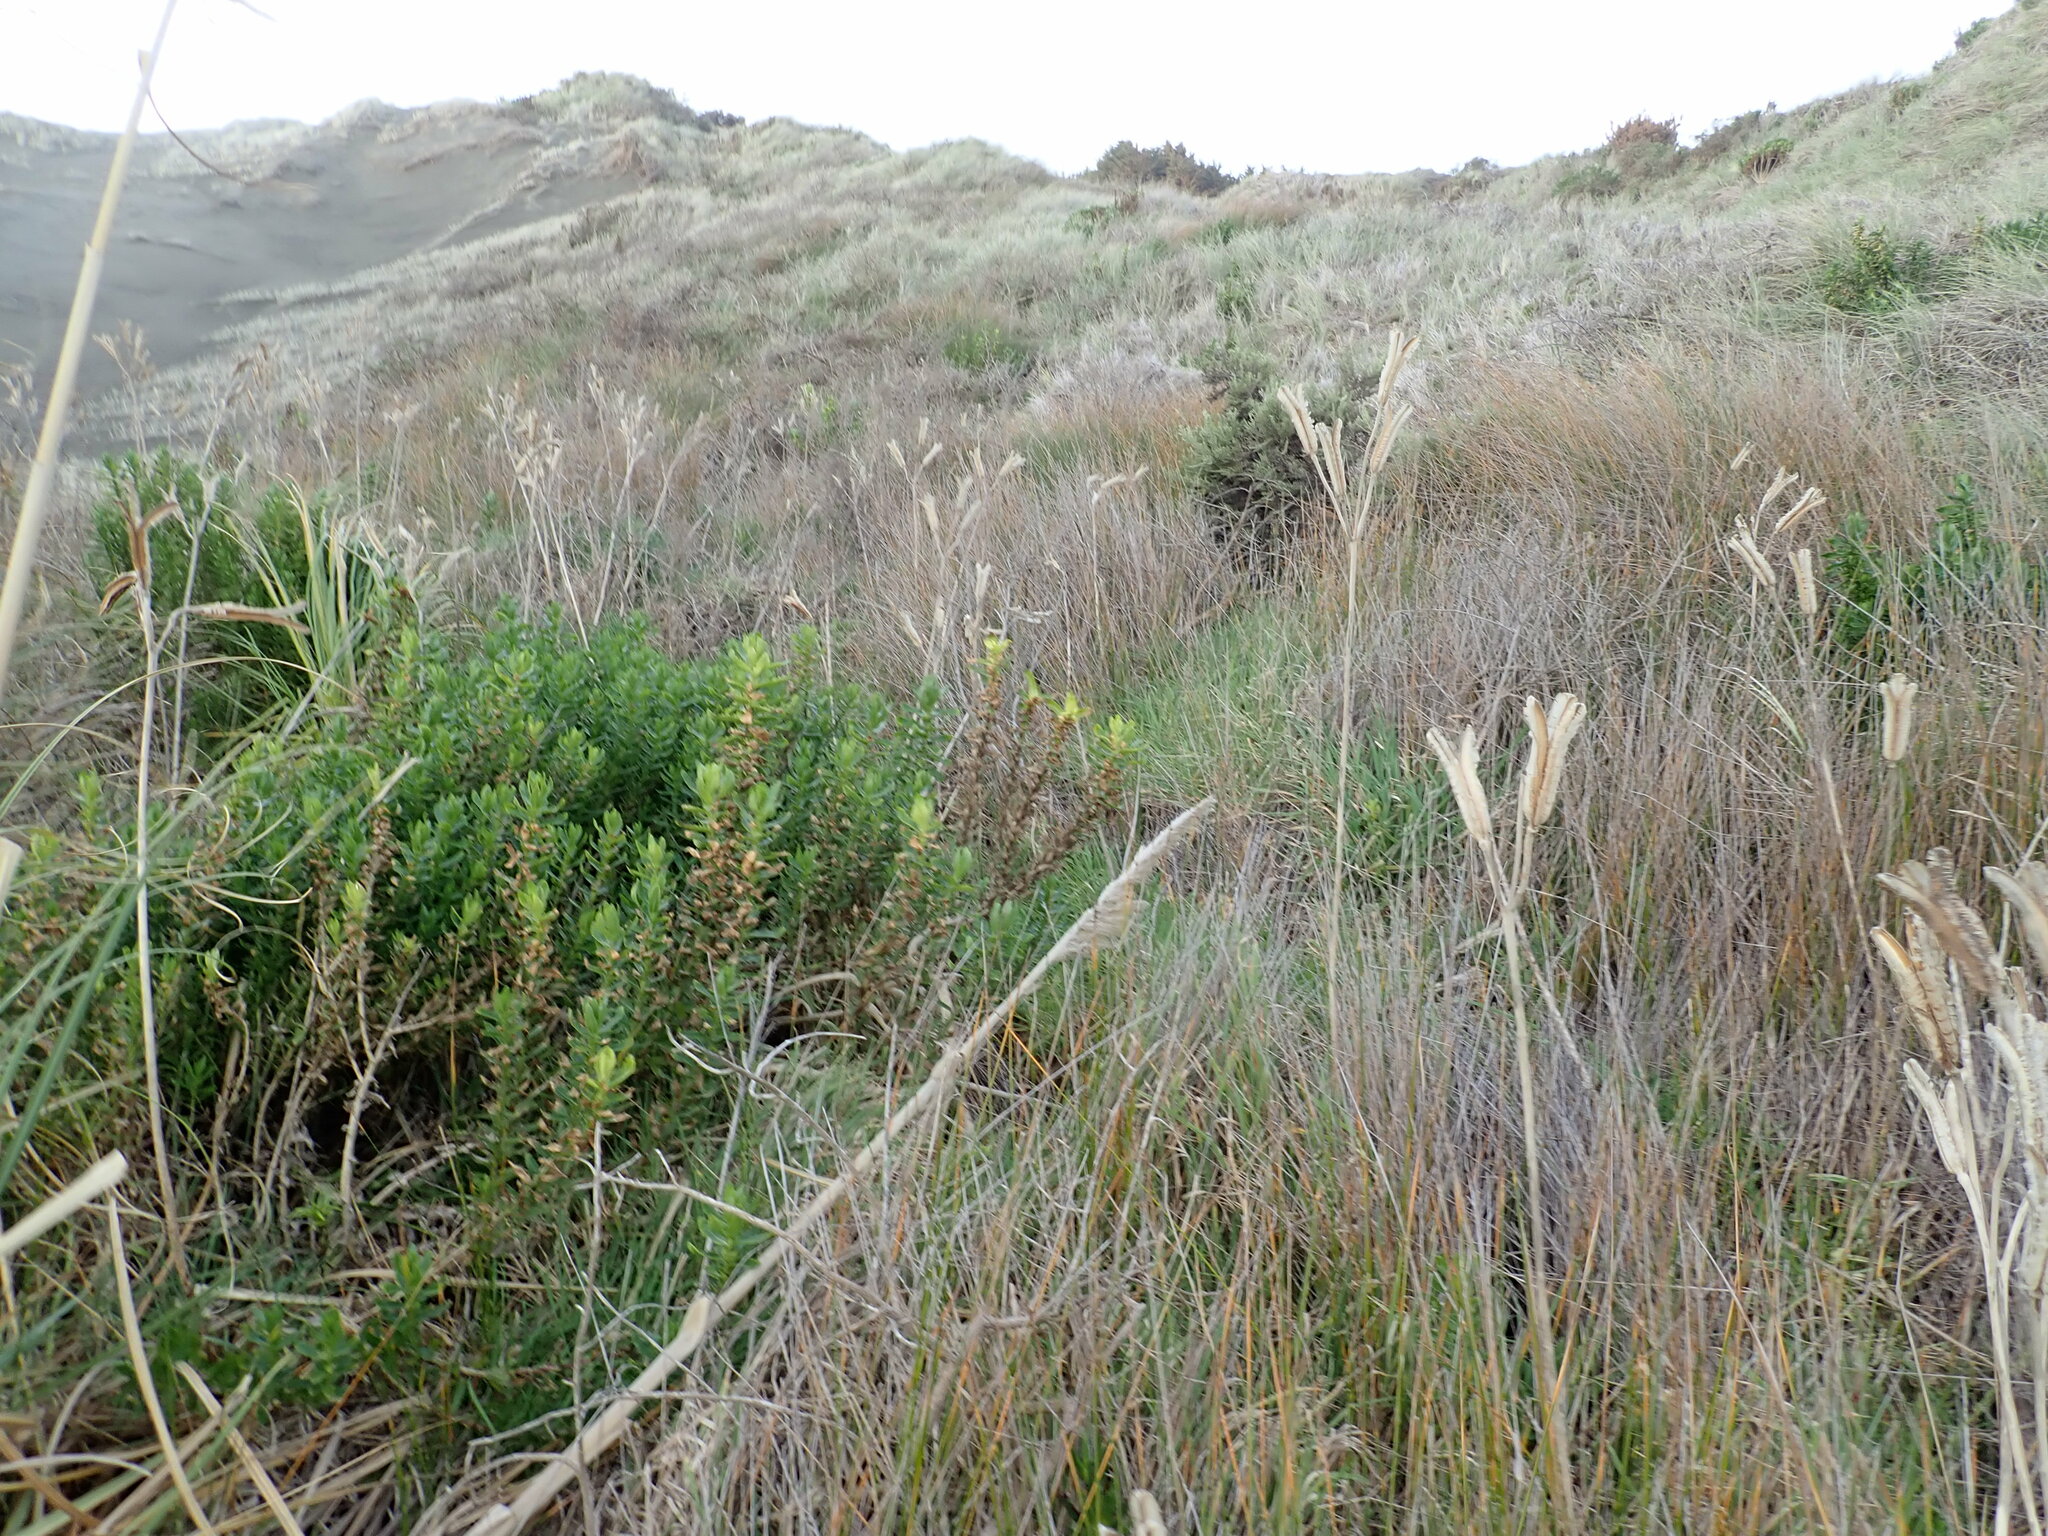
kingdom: Plantae
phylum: Tracheophyta
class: Magnoliopsida
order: Asterales
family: Asteraceae
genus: Senecio
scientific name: Senecio glastifolius
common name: Woad-leaved ragwort
